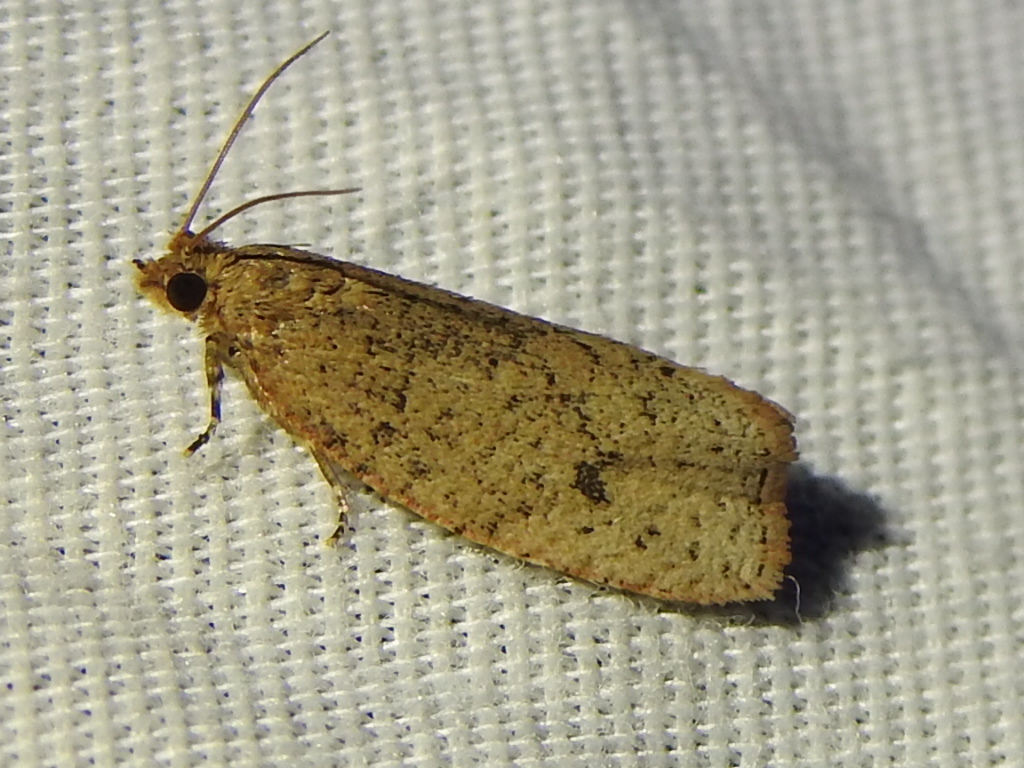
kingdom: Animalia
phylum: Arthropoda
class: Insecta
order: Lepidoptera
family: Tortricidae
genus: Phaecasiophora
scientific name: Phaecasiophora inspersa
